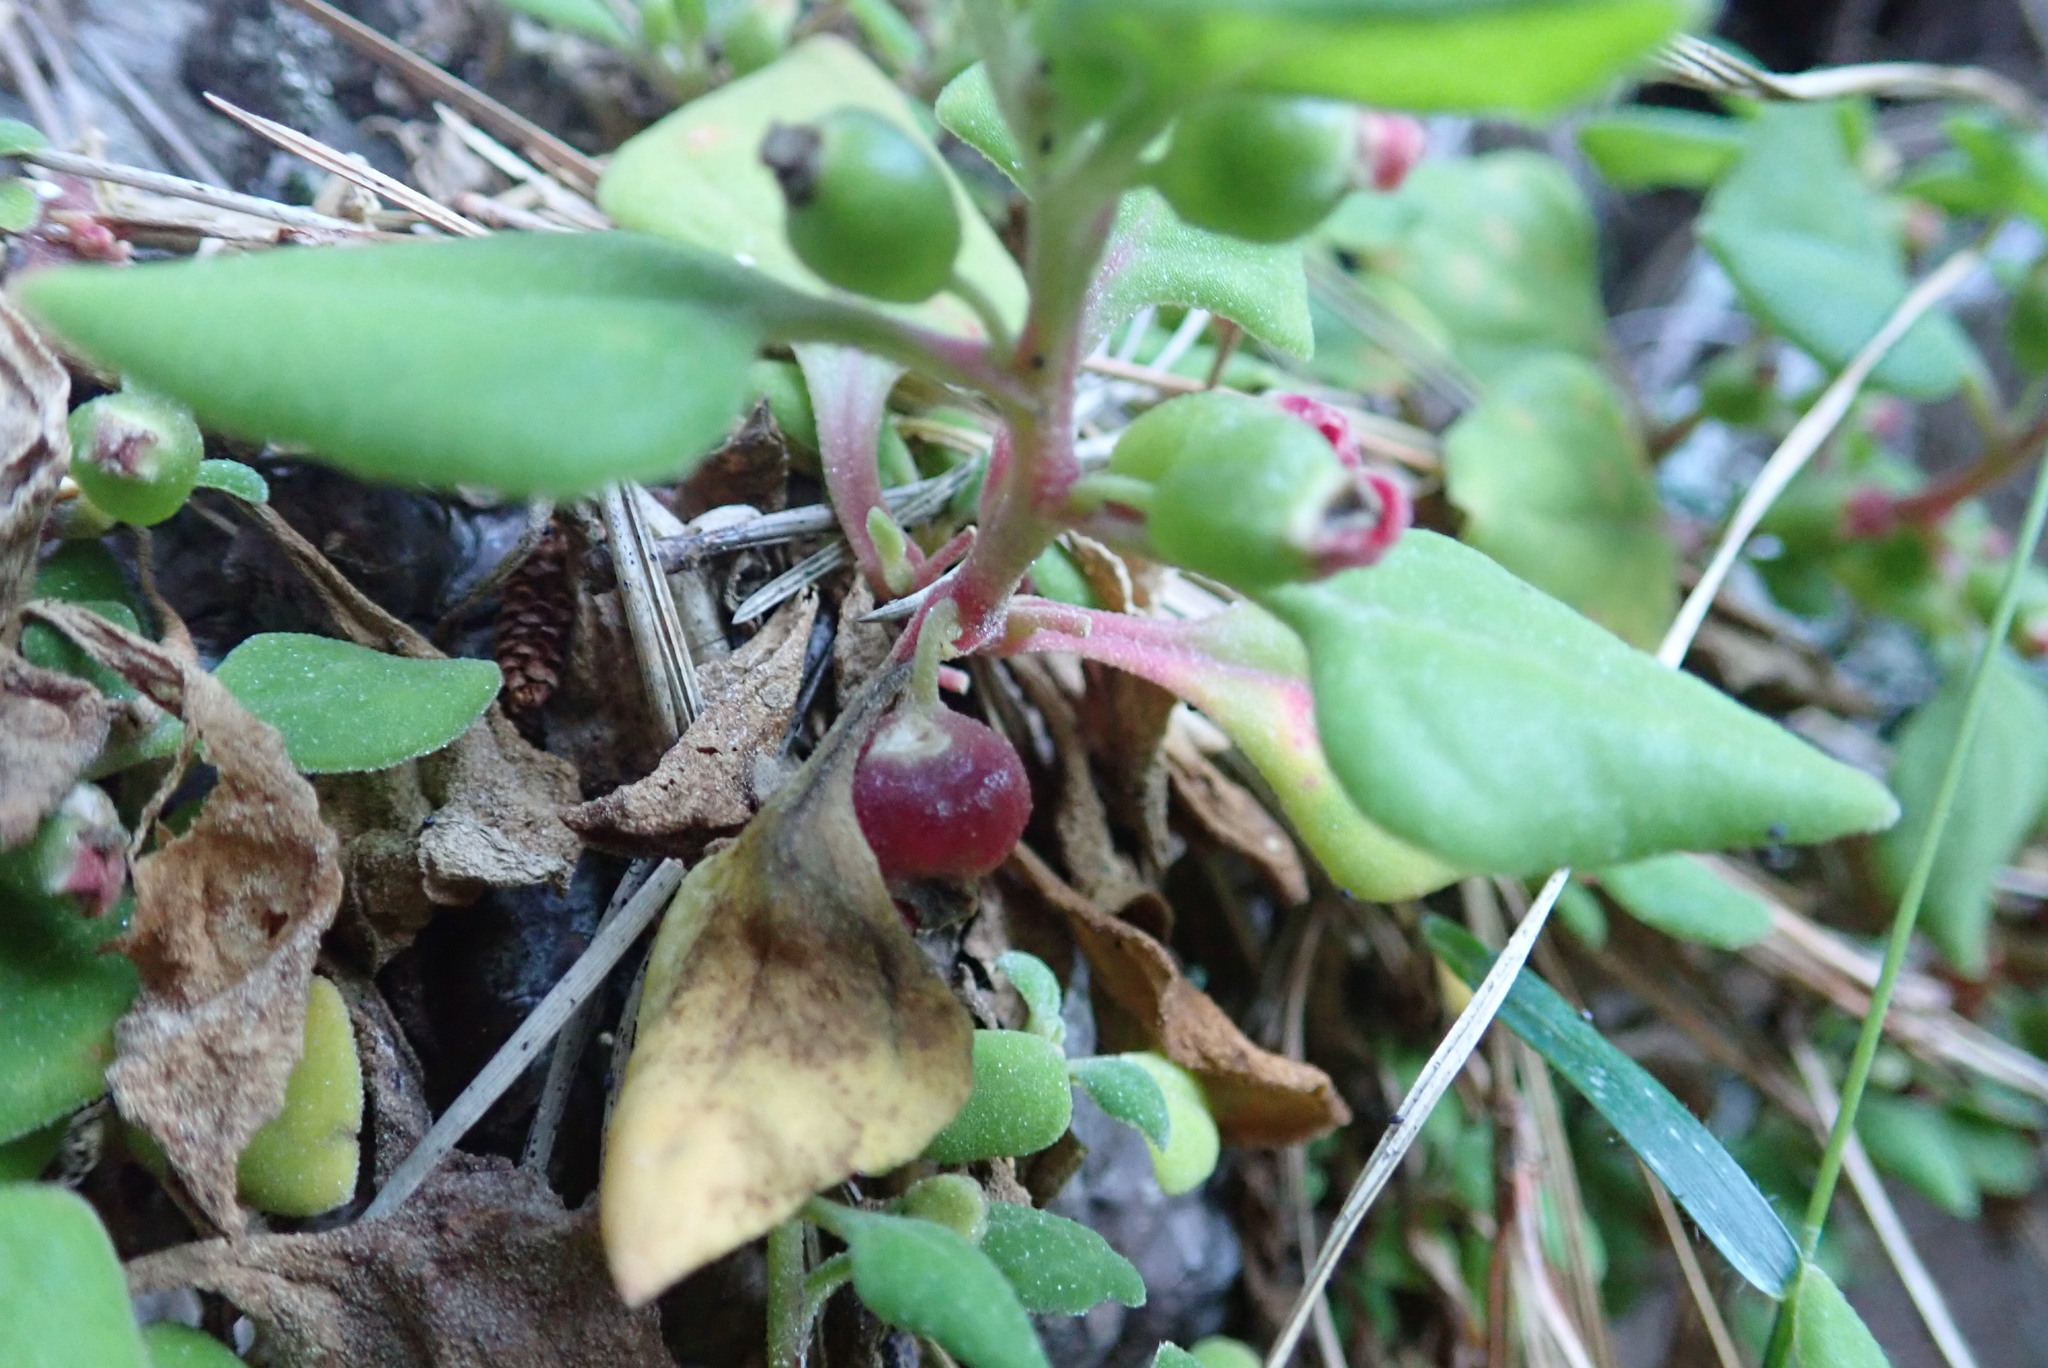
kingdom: Plantae
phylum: Tracheophyta
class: Magnoliopsida
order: Caryophyllales
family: Aizoaceae
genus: Tetragonia
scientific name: Tetragonia implexicoma
